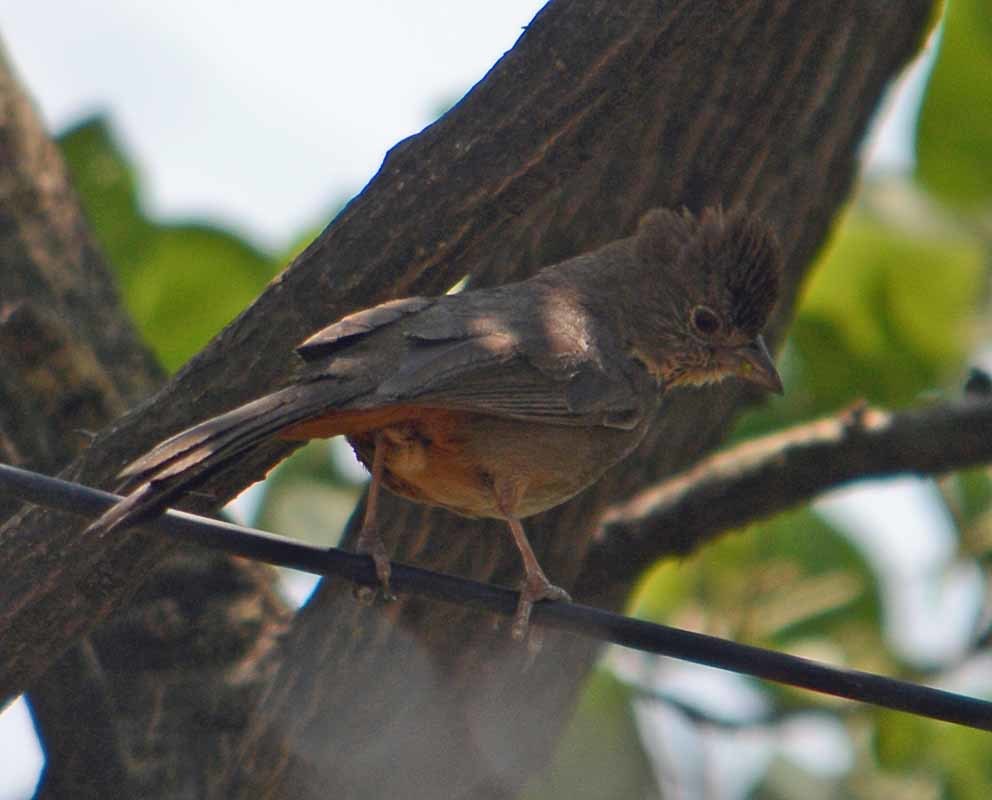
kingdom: Animalia
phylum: Chordata
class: Aves
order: Passeriformes
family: Passerellidae
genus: Melozone
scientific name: Melozone fusca
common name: Canyon towhee
